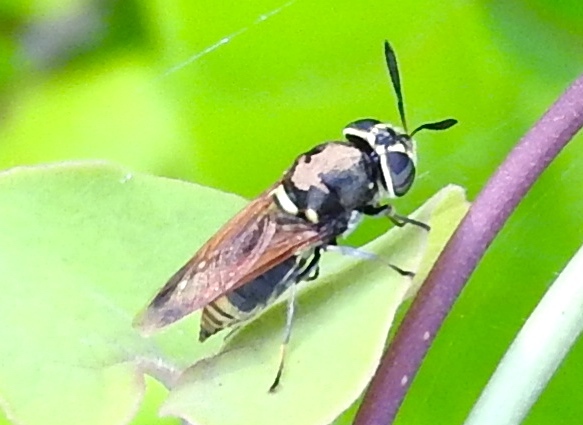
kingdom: Animalia
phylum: Arthropoda
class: Insecta
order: Diptera
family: Stratiomyidae
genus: Hoplitimyia
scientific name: Hoplitimyia
